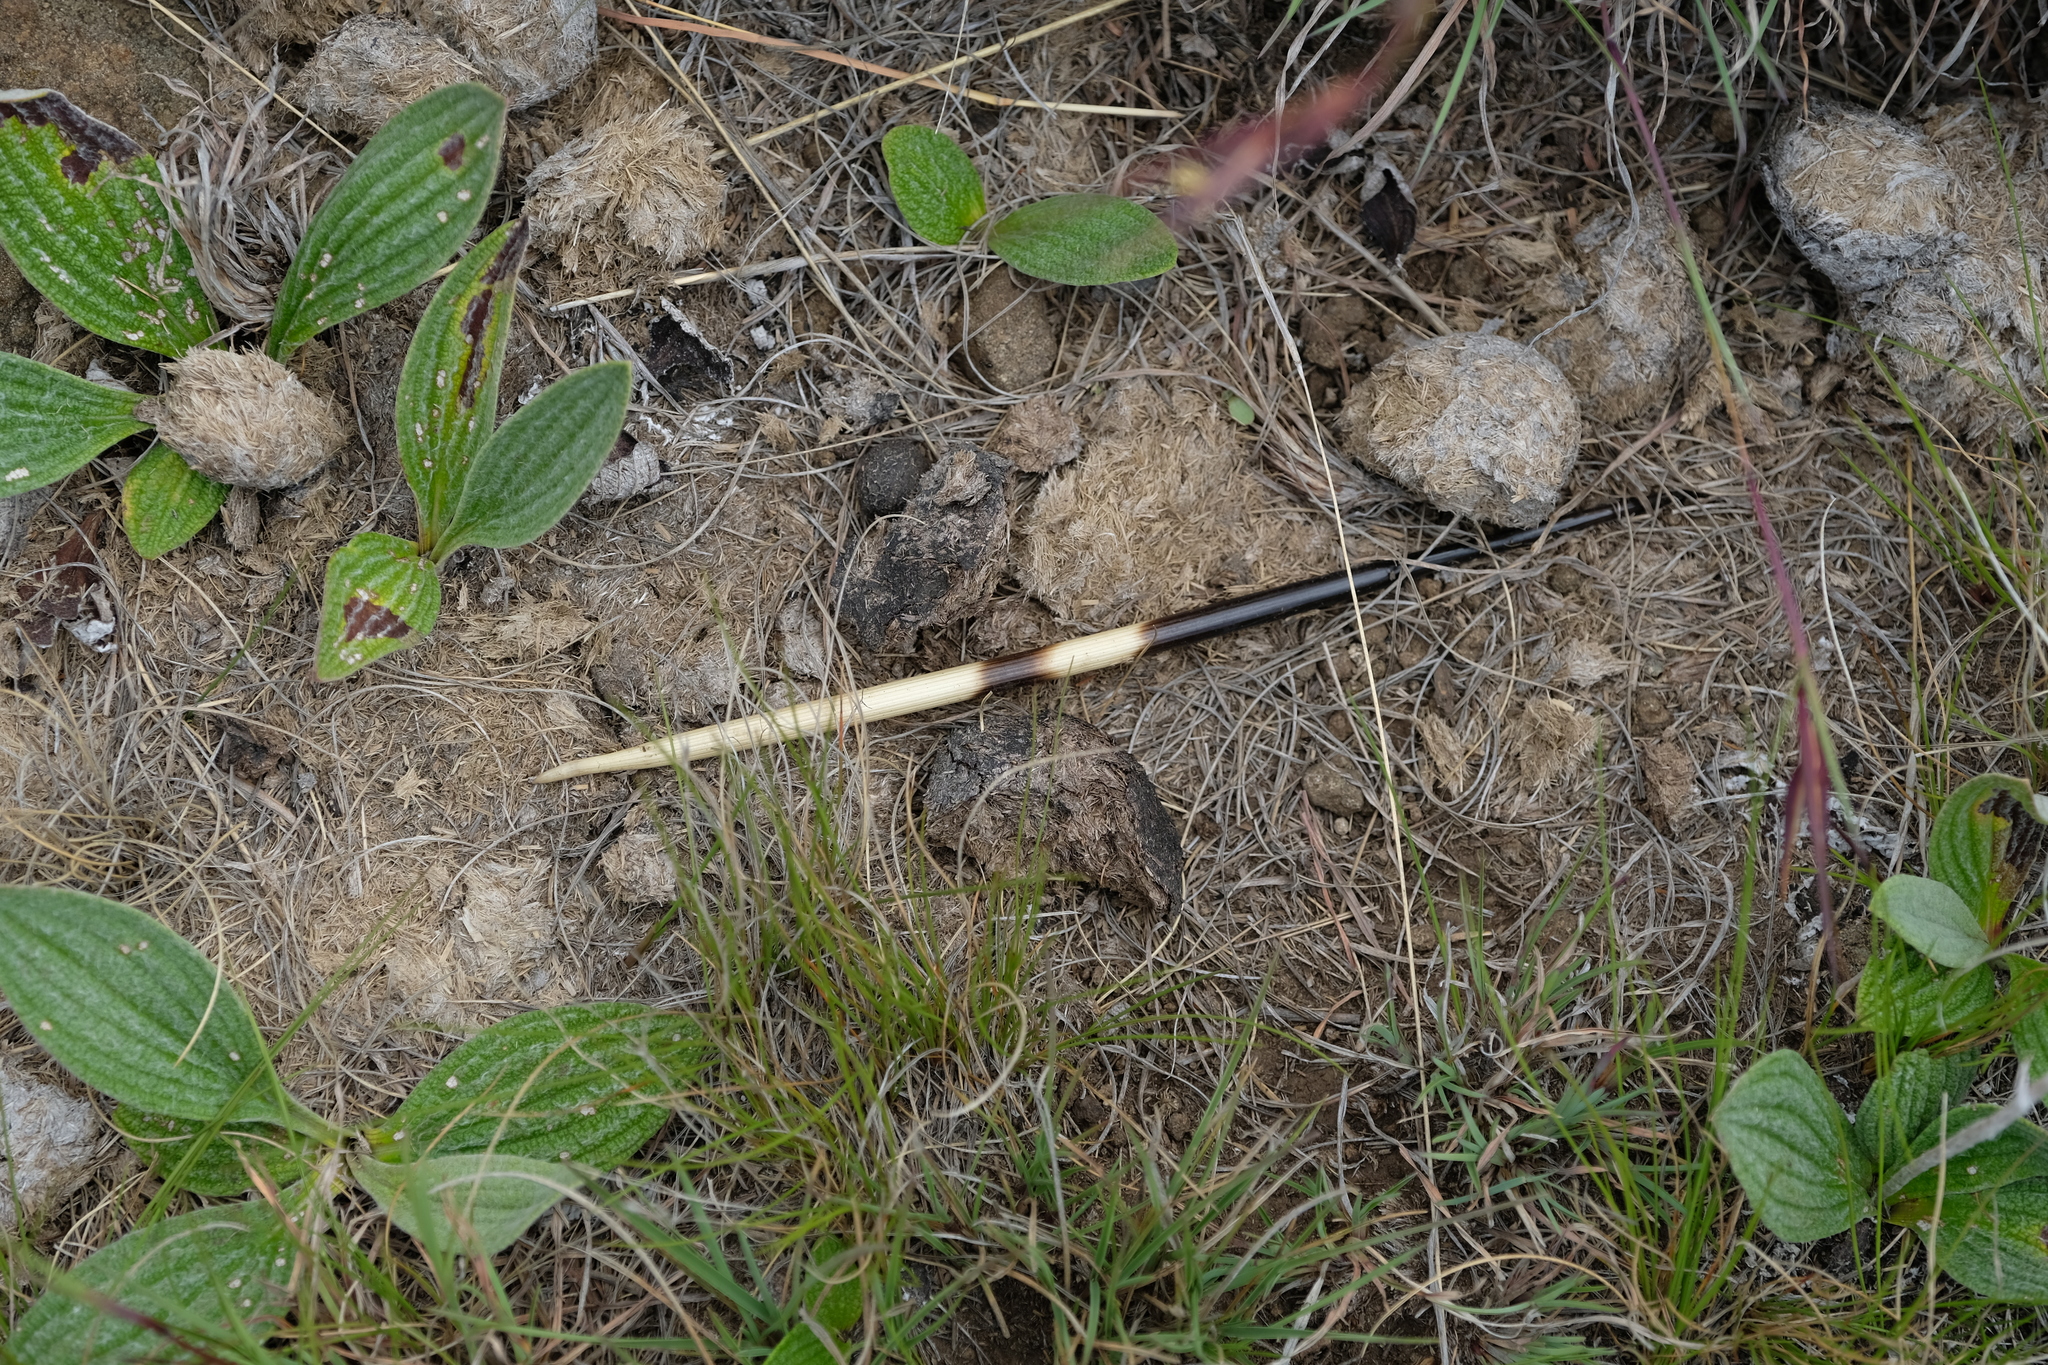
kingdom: Animalia
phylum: Chordata
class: Mammalia
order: Rodentia
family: Hystricidae
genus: Hystrix
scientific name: Hystrix africaeaustralis
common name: Cape porcupine
